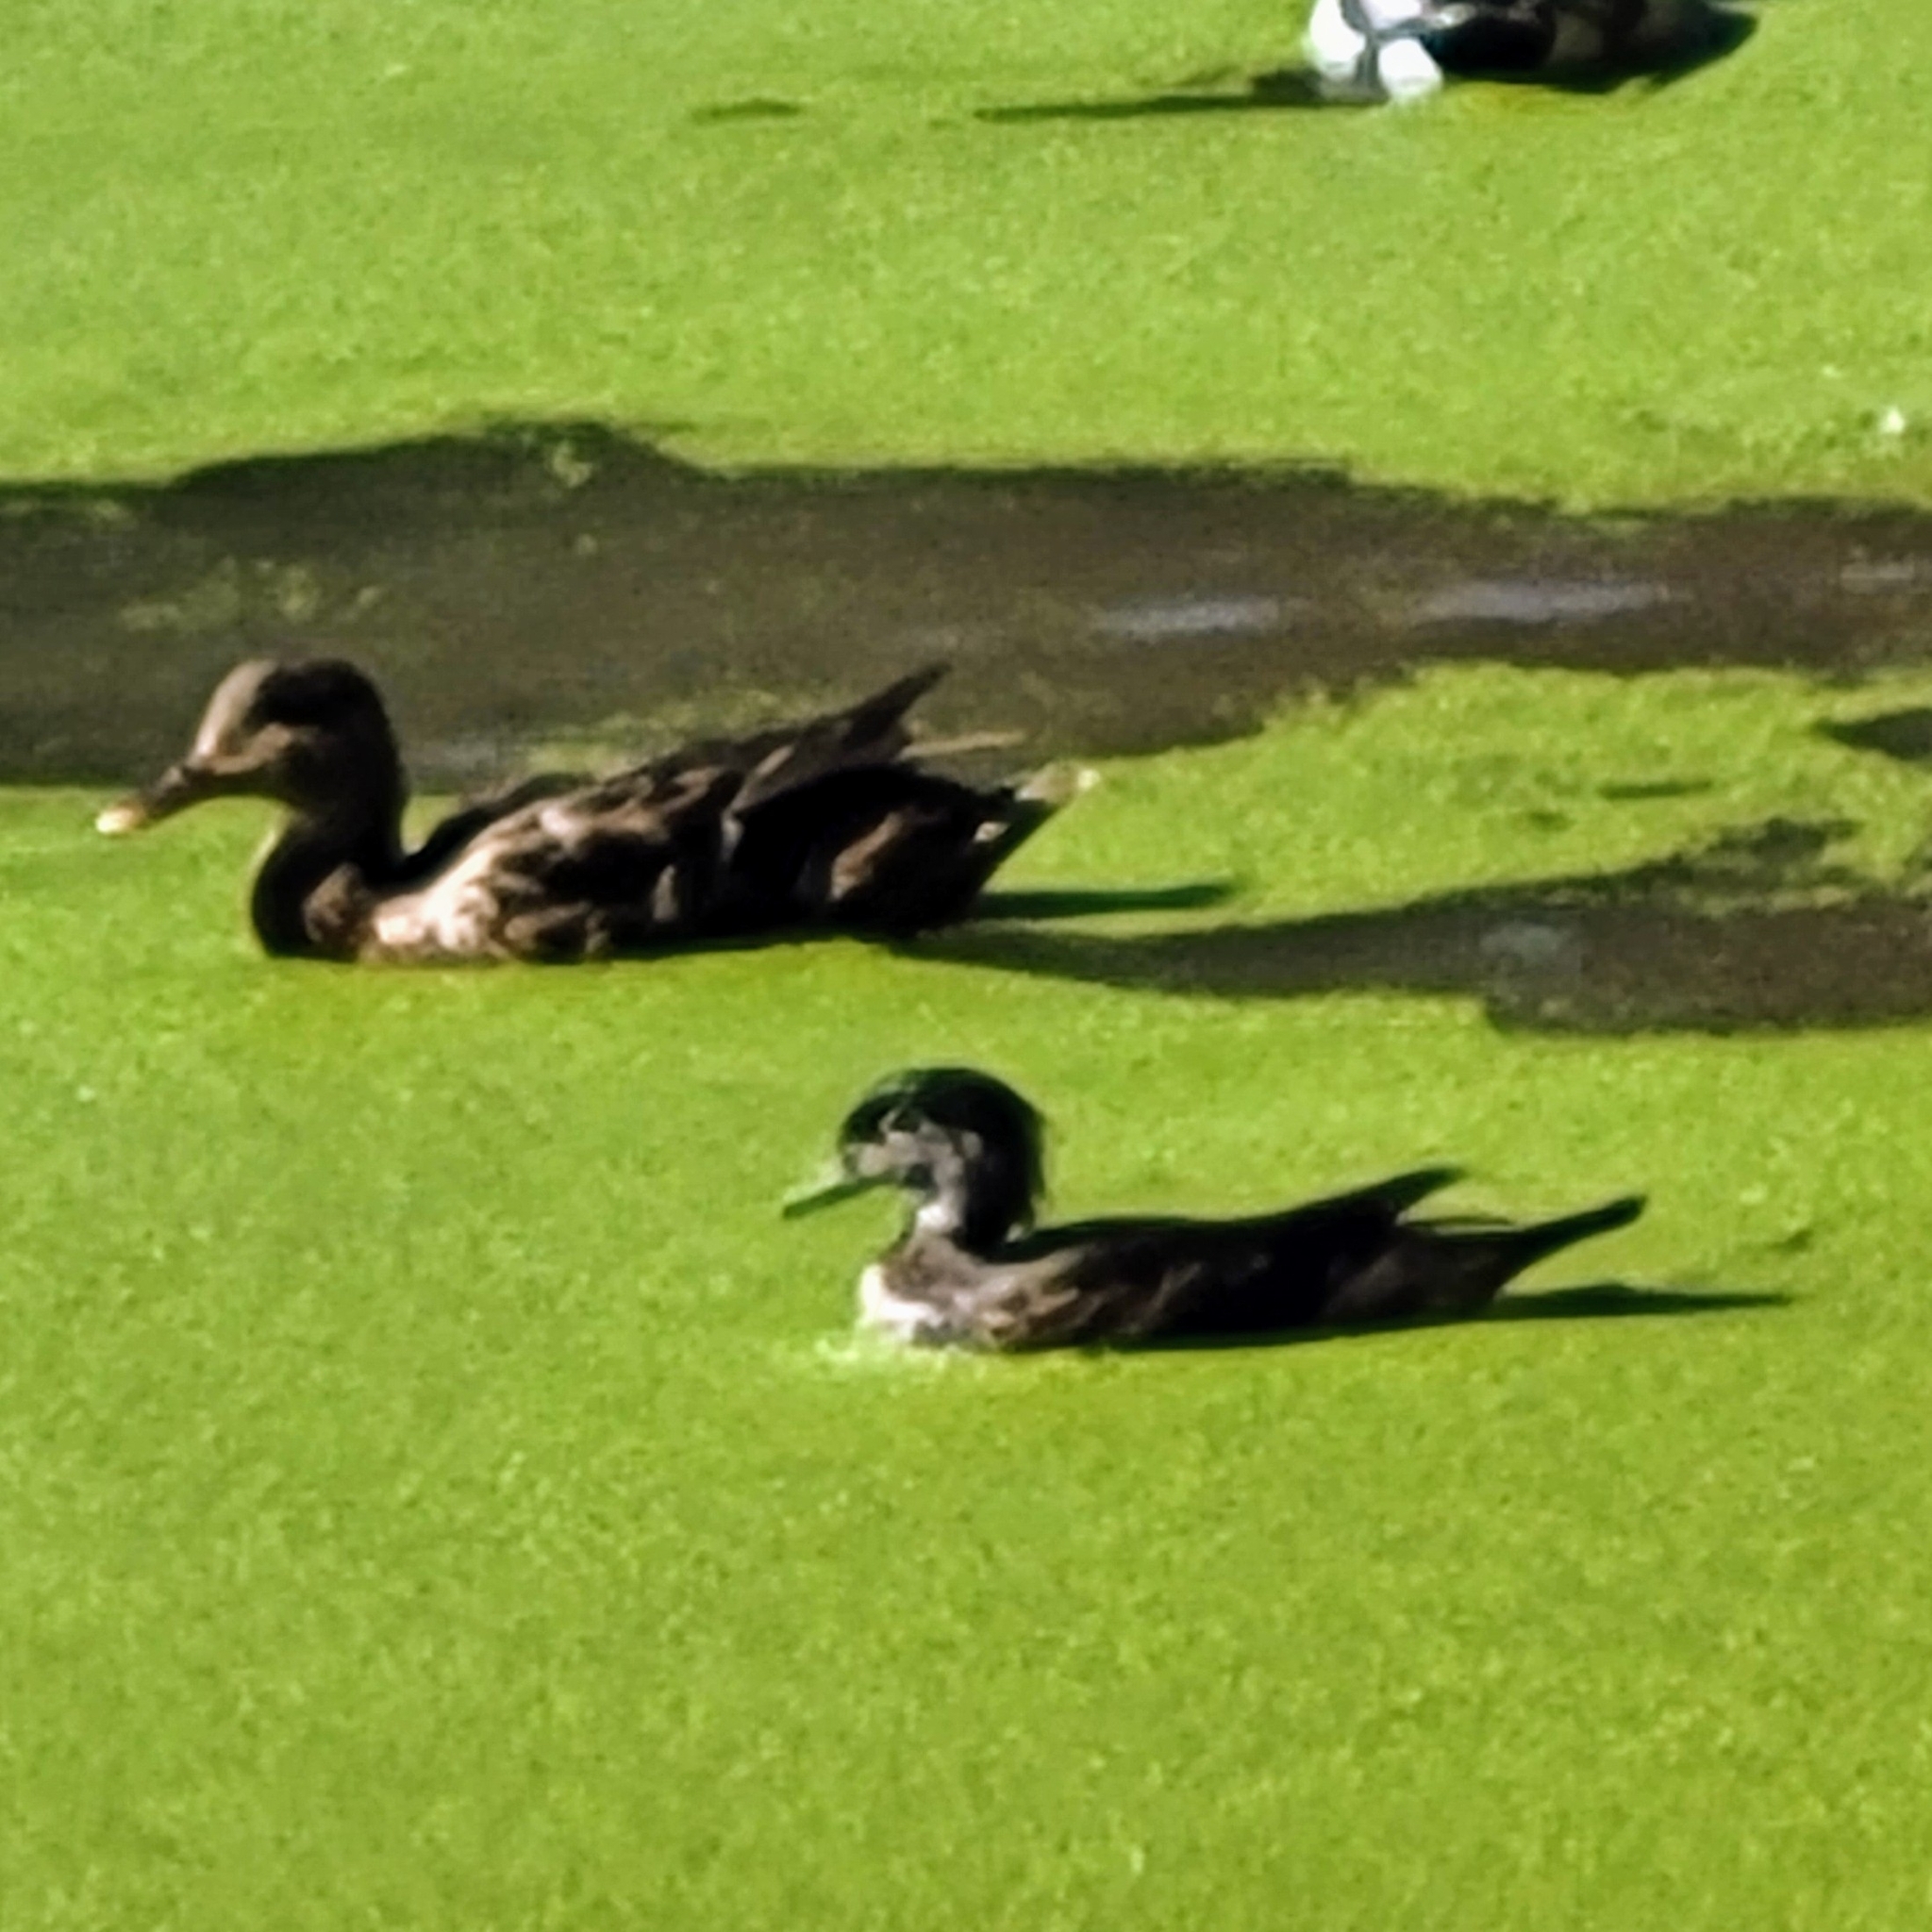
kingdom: Animalia
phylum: Chordata
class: Aves
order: Anseriformes
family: Anatidae
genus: Aix
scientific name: Aix sponsa
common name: Wood duck
